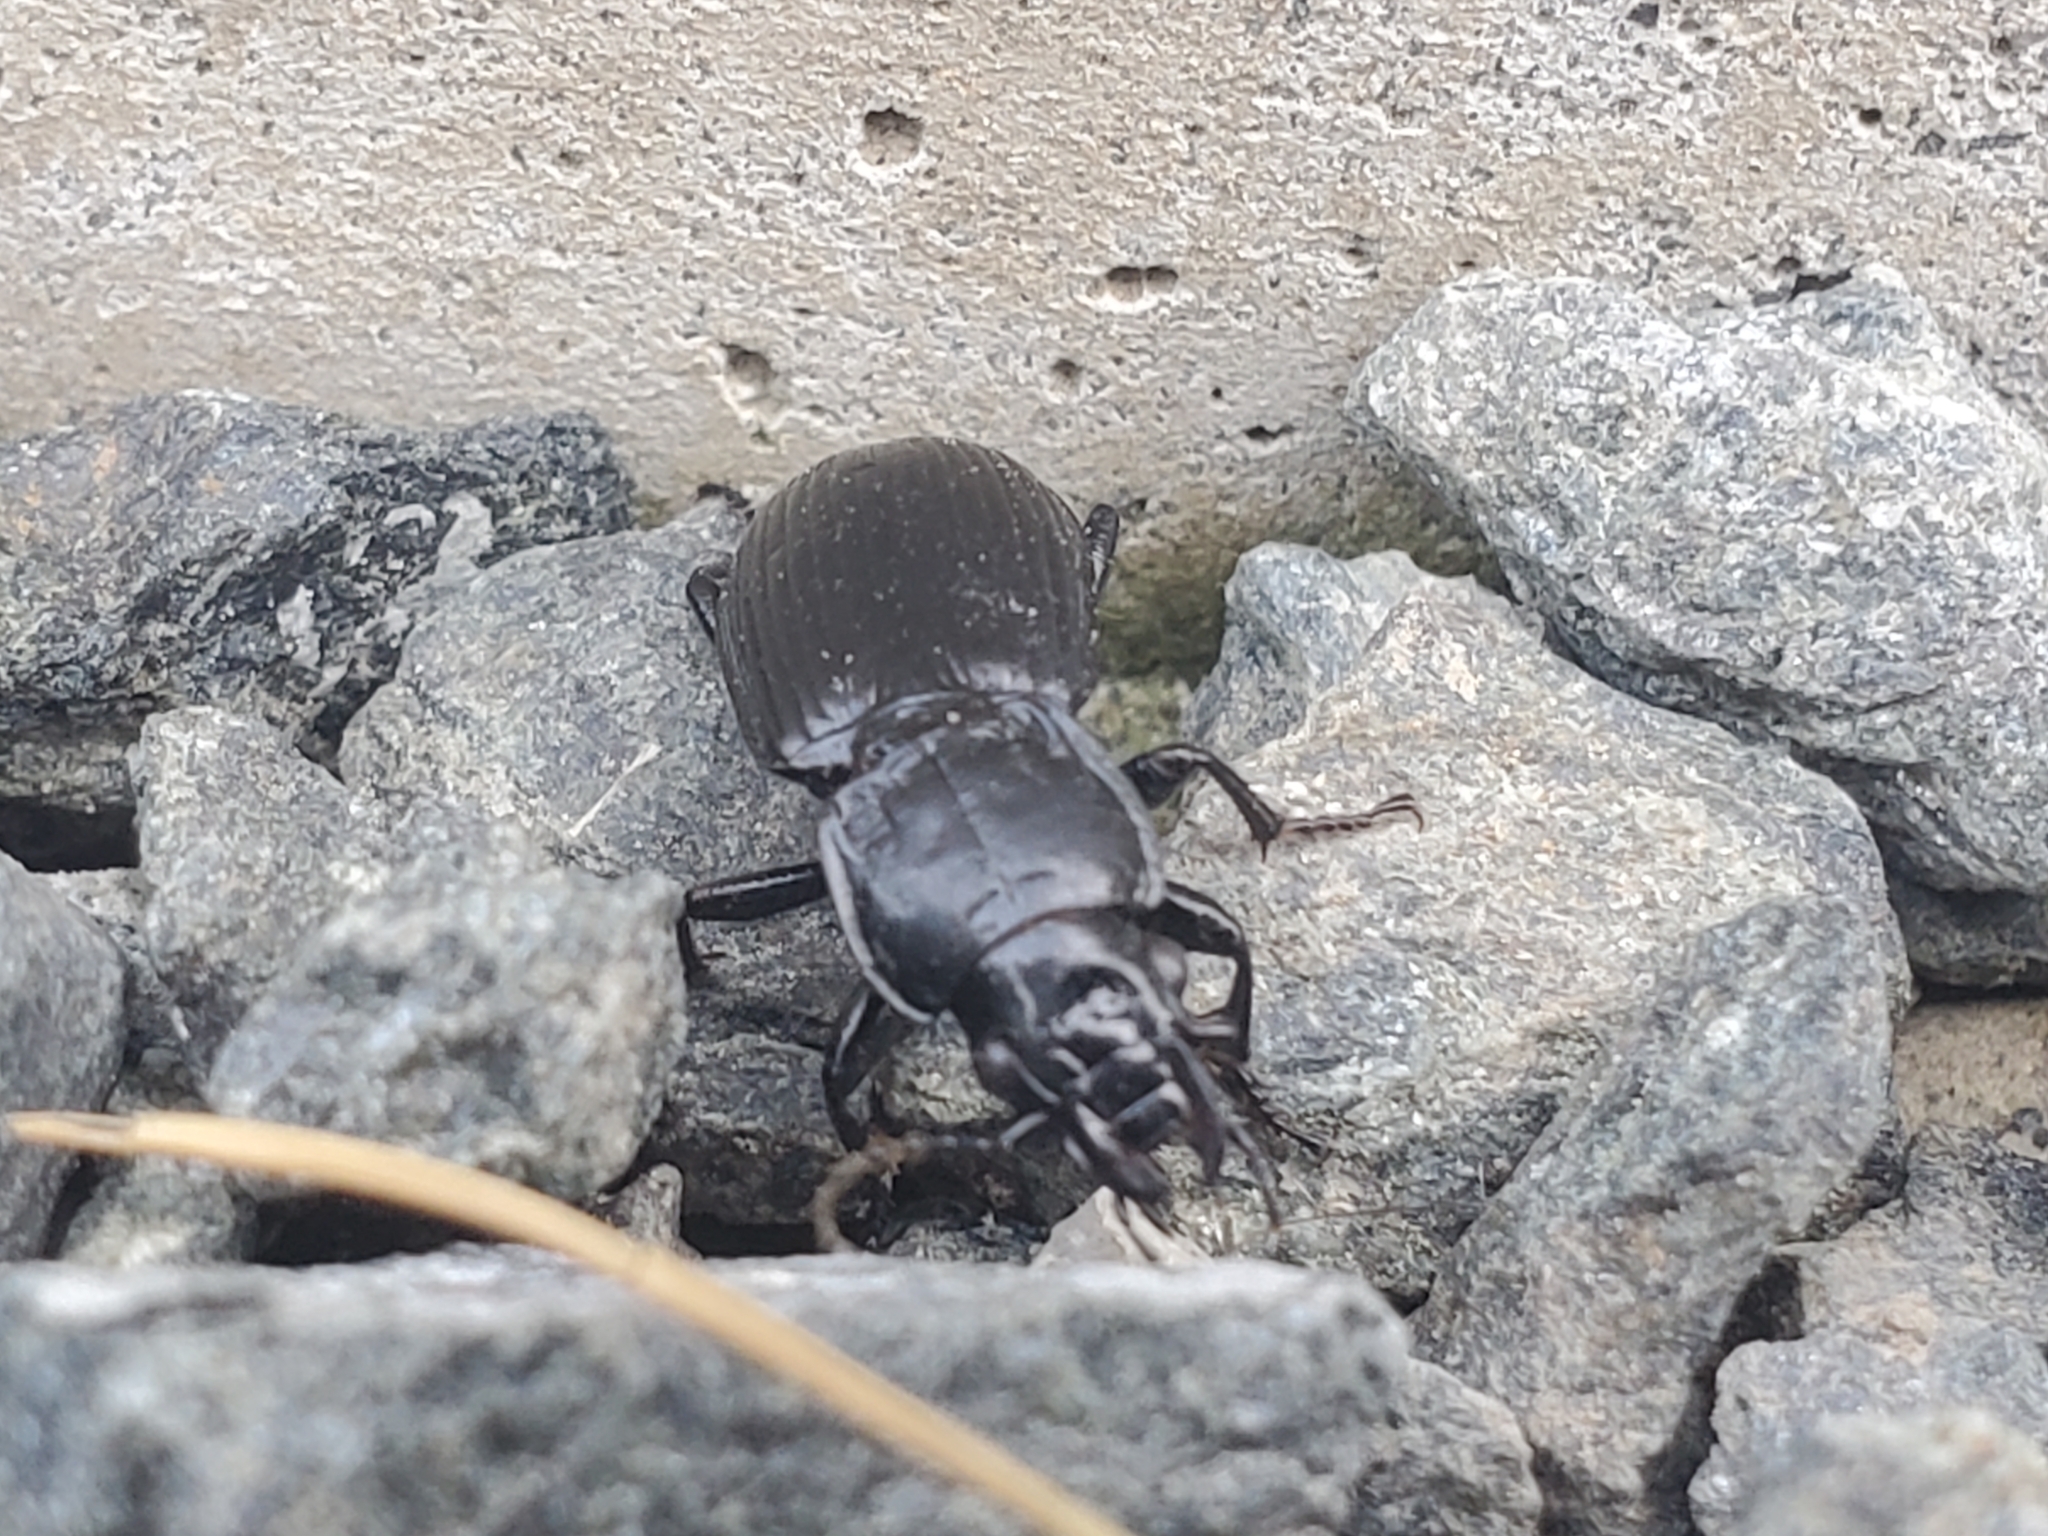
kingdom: Animalia
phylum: Arthropoda
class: Insecta
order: Coleoptera
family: Carabidae
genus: Pterostichus
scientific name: Pterostichus melanarius
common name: European dark harp ground beetle
